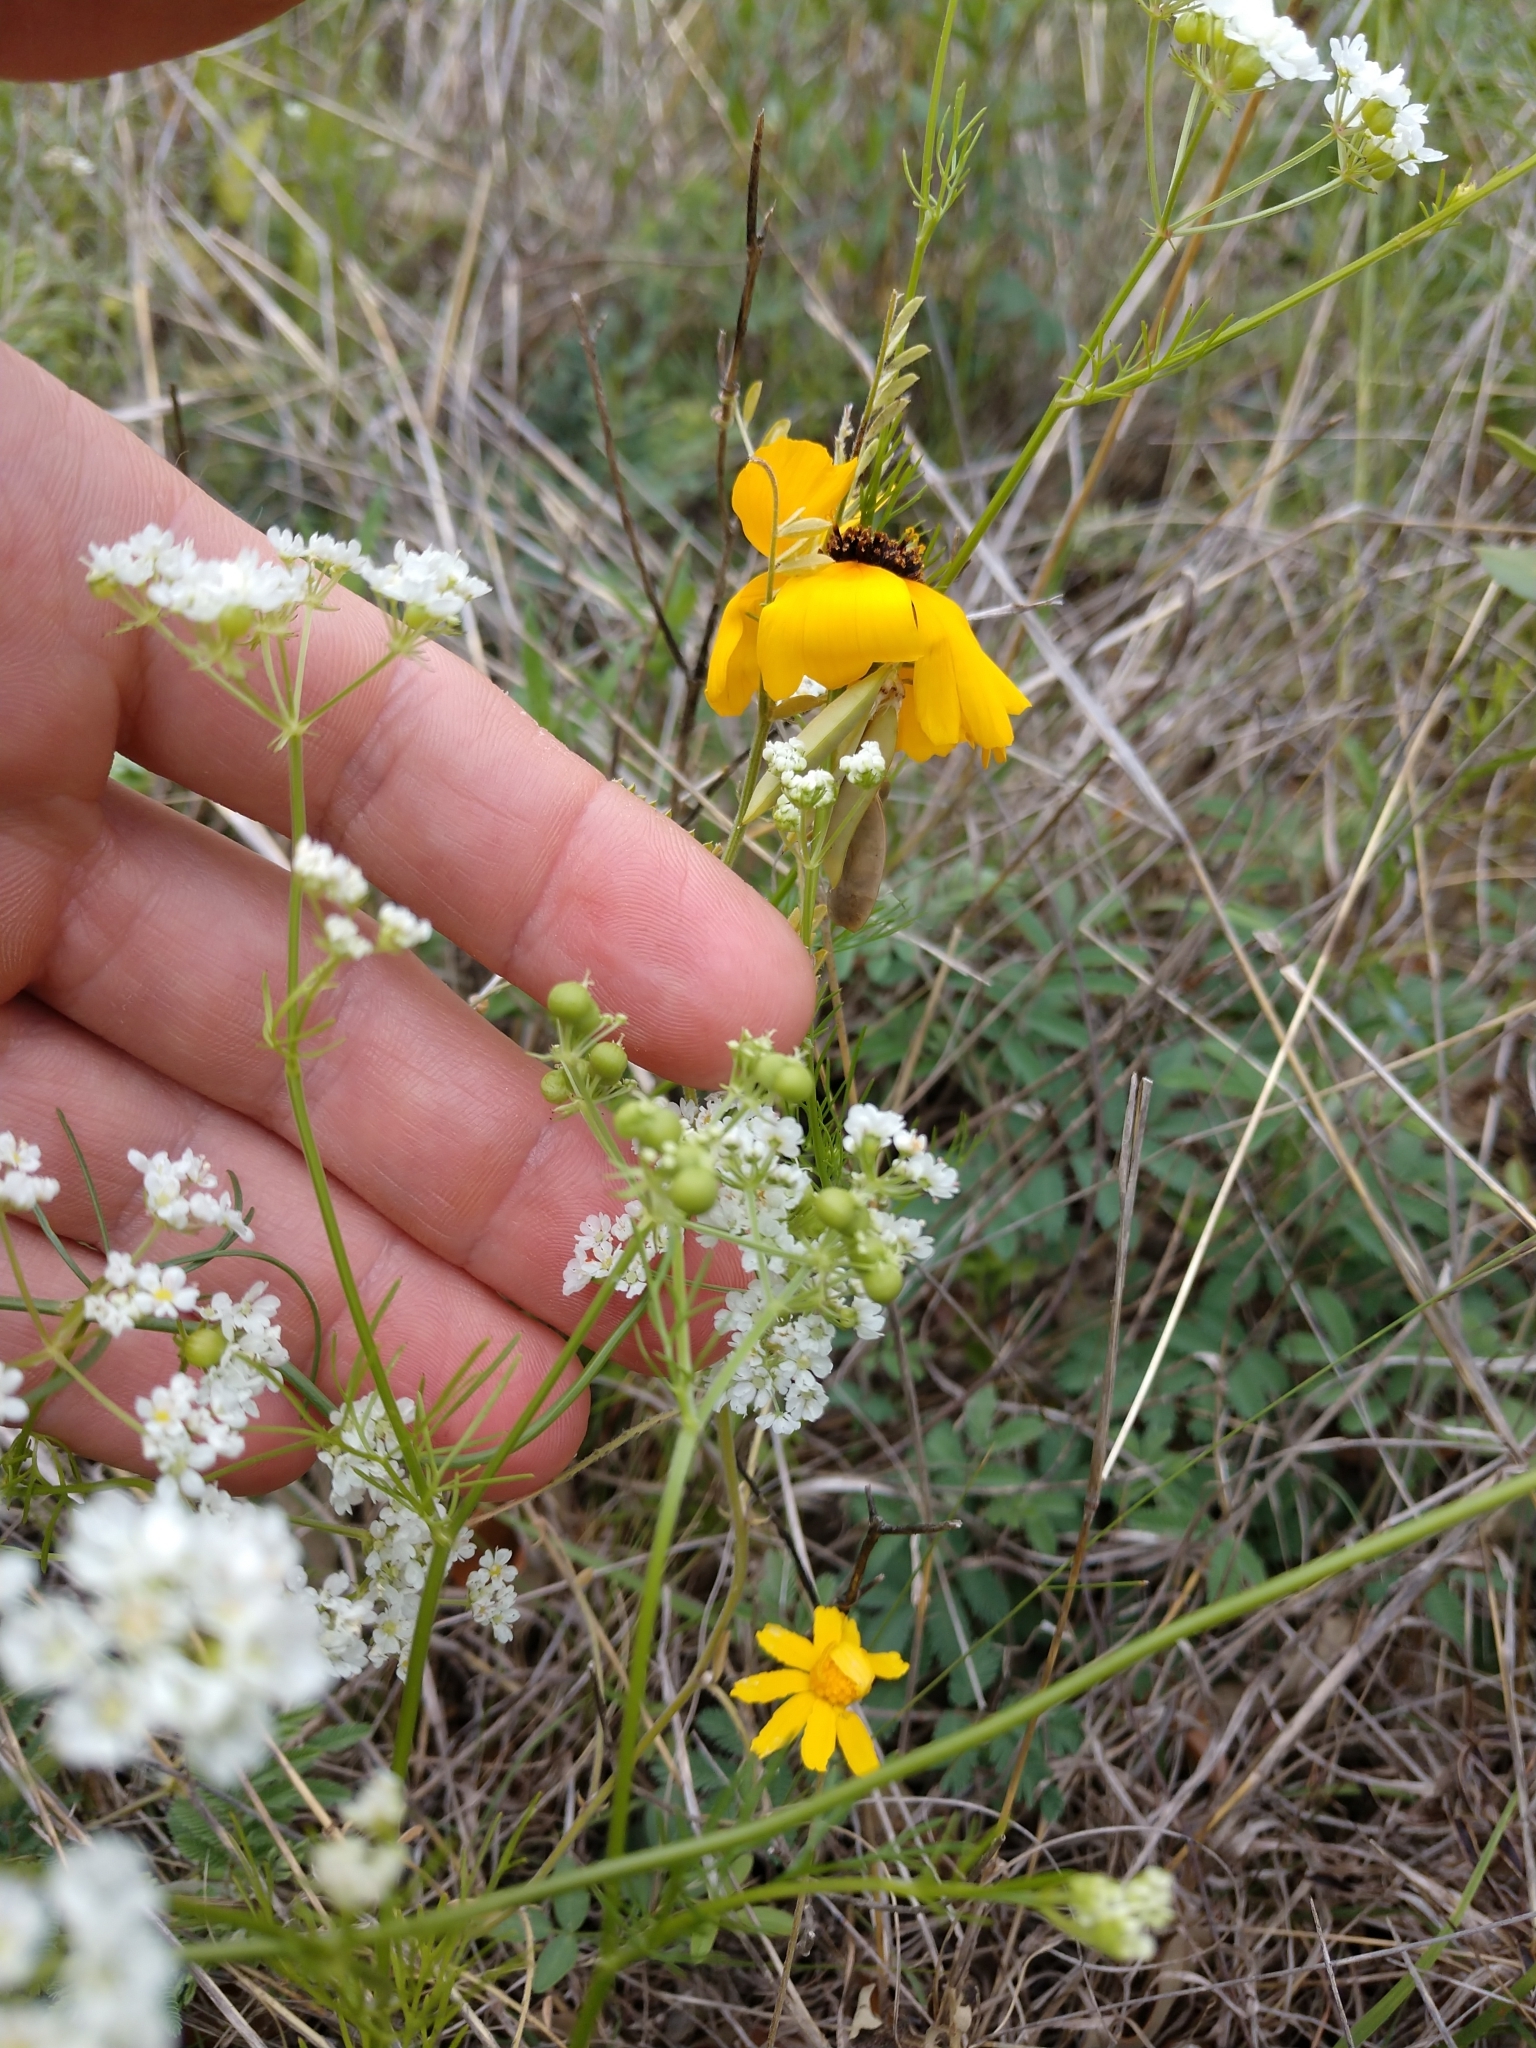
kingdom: Plantae
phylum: Tracheophyta
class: Magnoliopsida
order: Apiales
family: Apiaceae
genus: Atrema
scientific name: Atrema americanum
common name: Prairie-bishop
